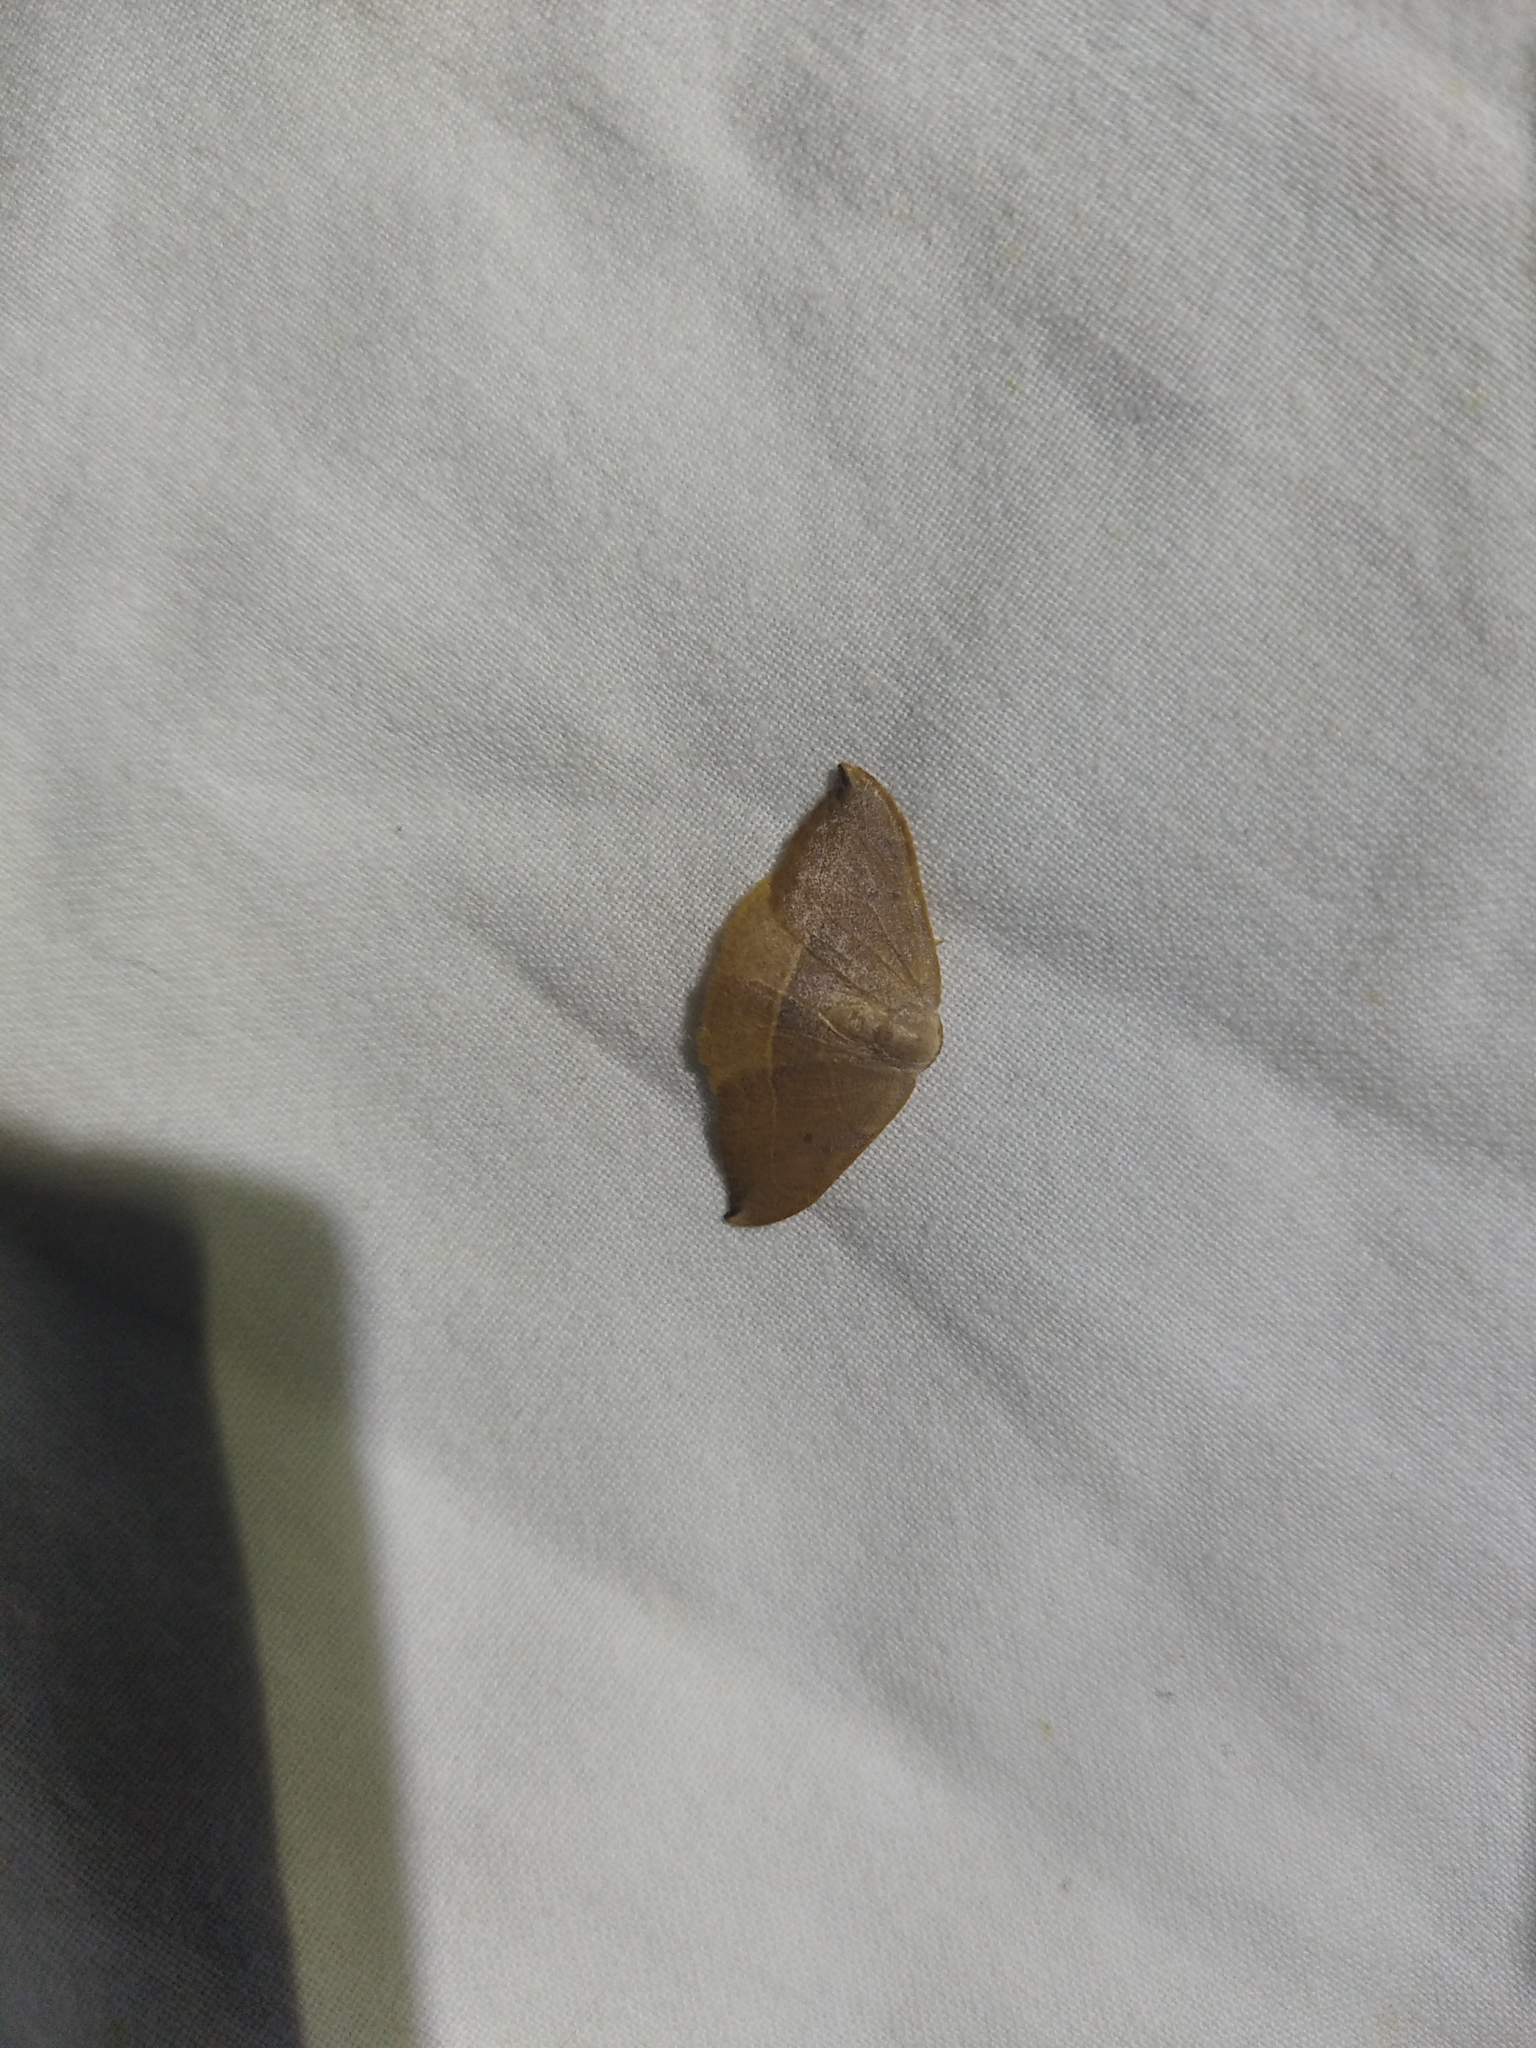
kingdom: Animalia
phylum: Arthropoda
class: Insecta
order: Lepidoptera
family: Drepanidae
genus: Watsonalla
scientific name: Watsonalla uncinula
